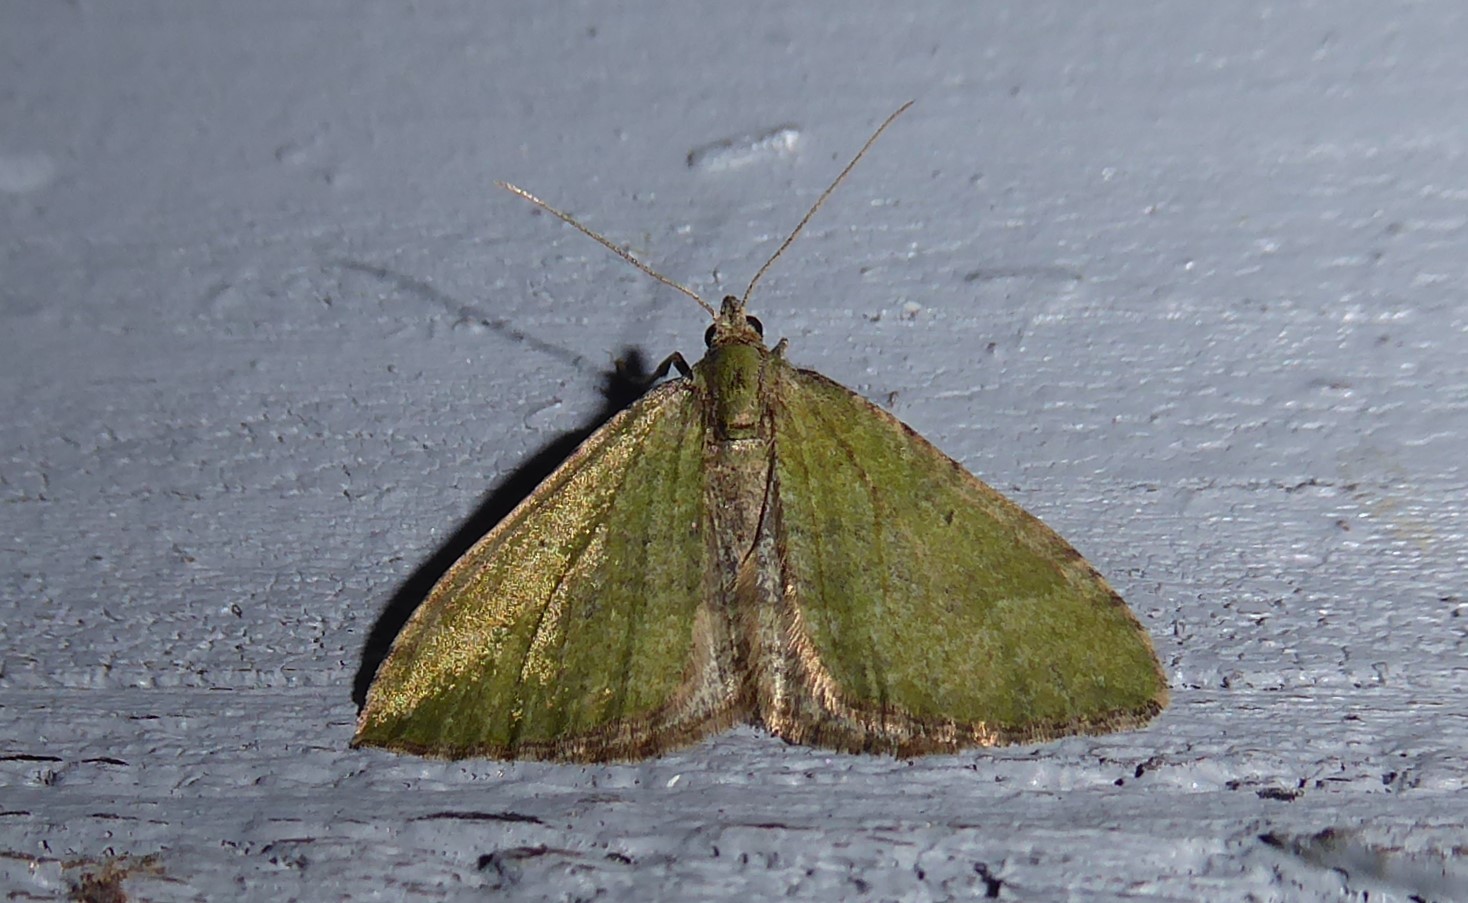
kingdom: Animalia
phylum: Arthropoda
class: Insecta
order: Lepidoptera
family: Geometridae
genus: Epyaxa
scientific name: Epyaxa rosearia
